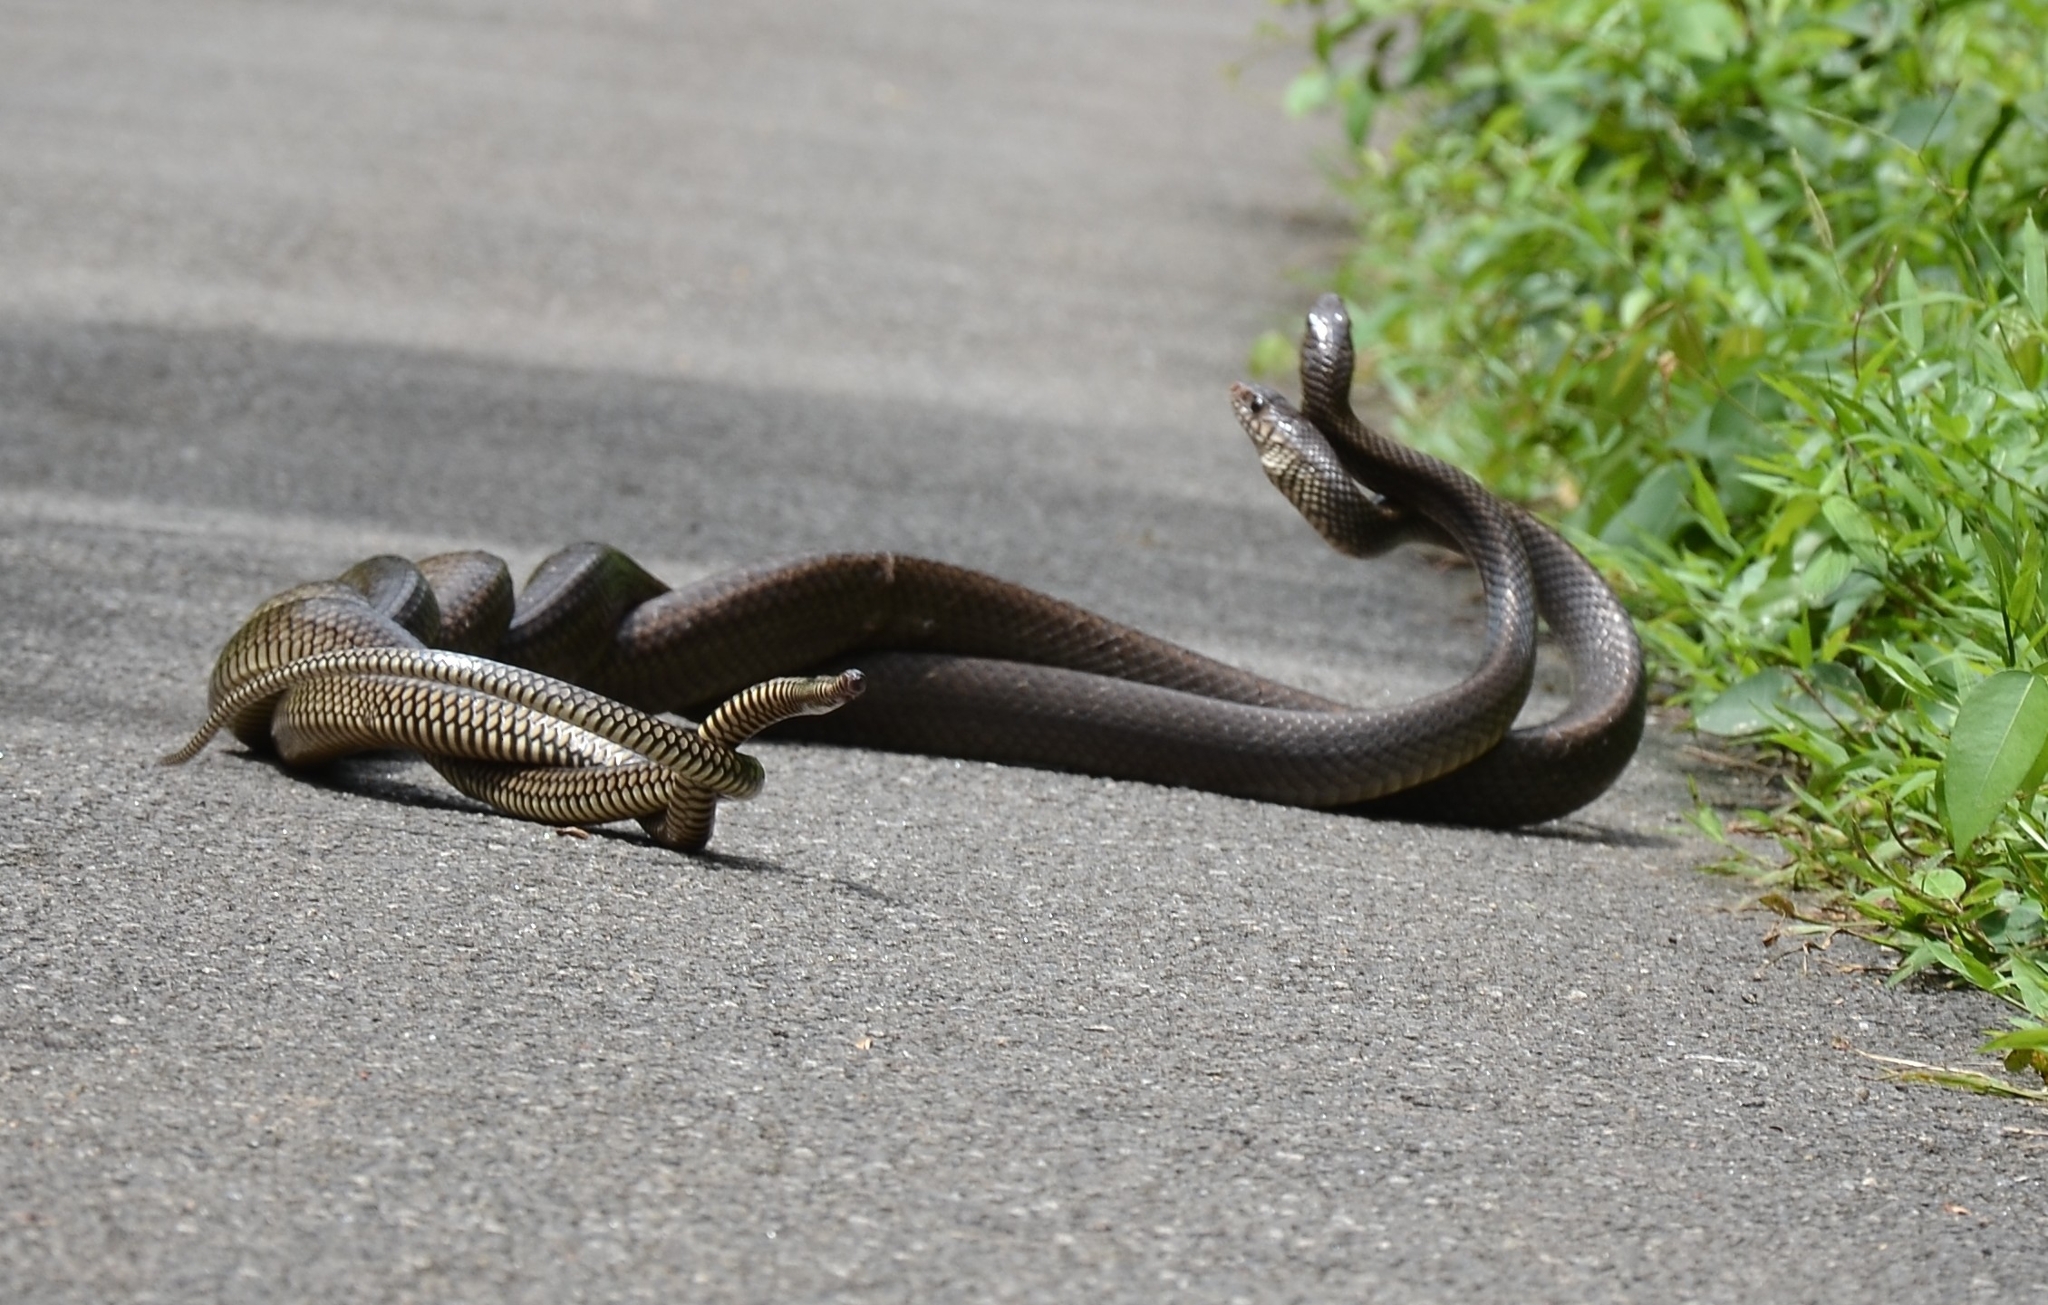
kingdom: Animalia
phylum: Chordata
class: Squamata
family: Colubridae
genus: Ptyas
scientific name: Ptyas mucosa
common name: Oriental ratsnake
